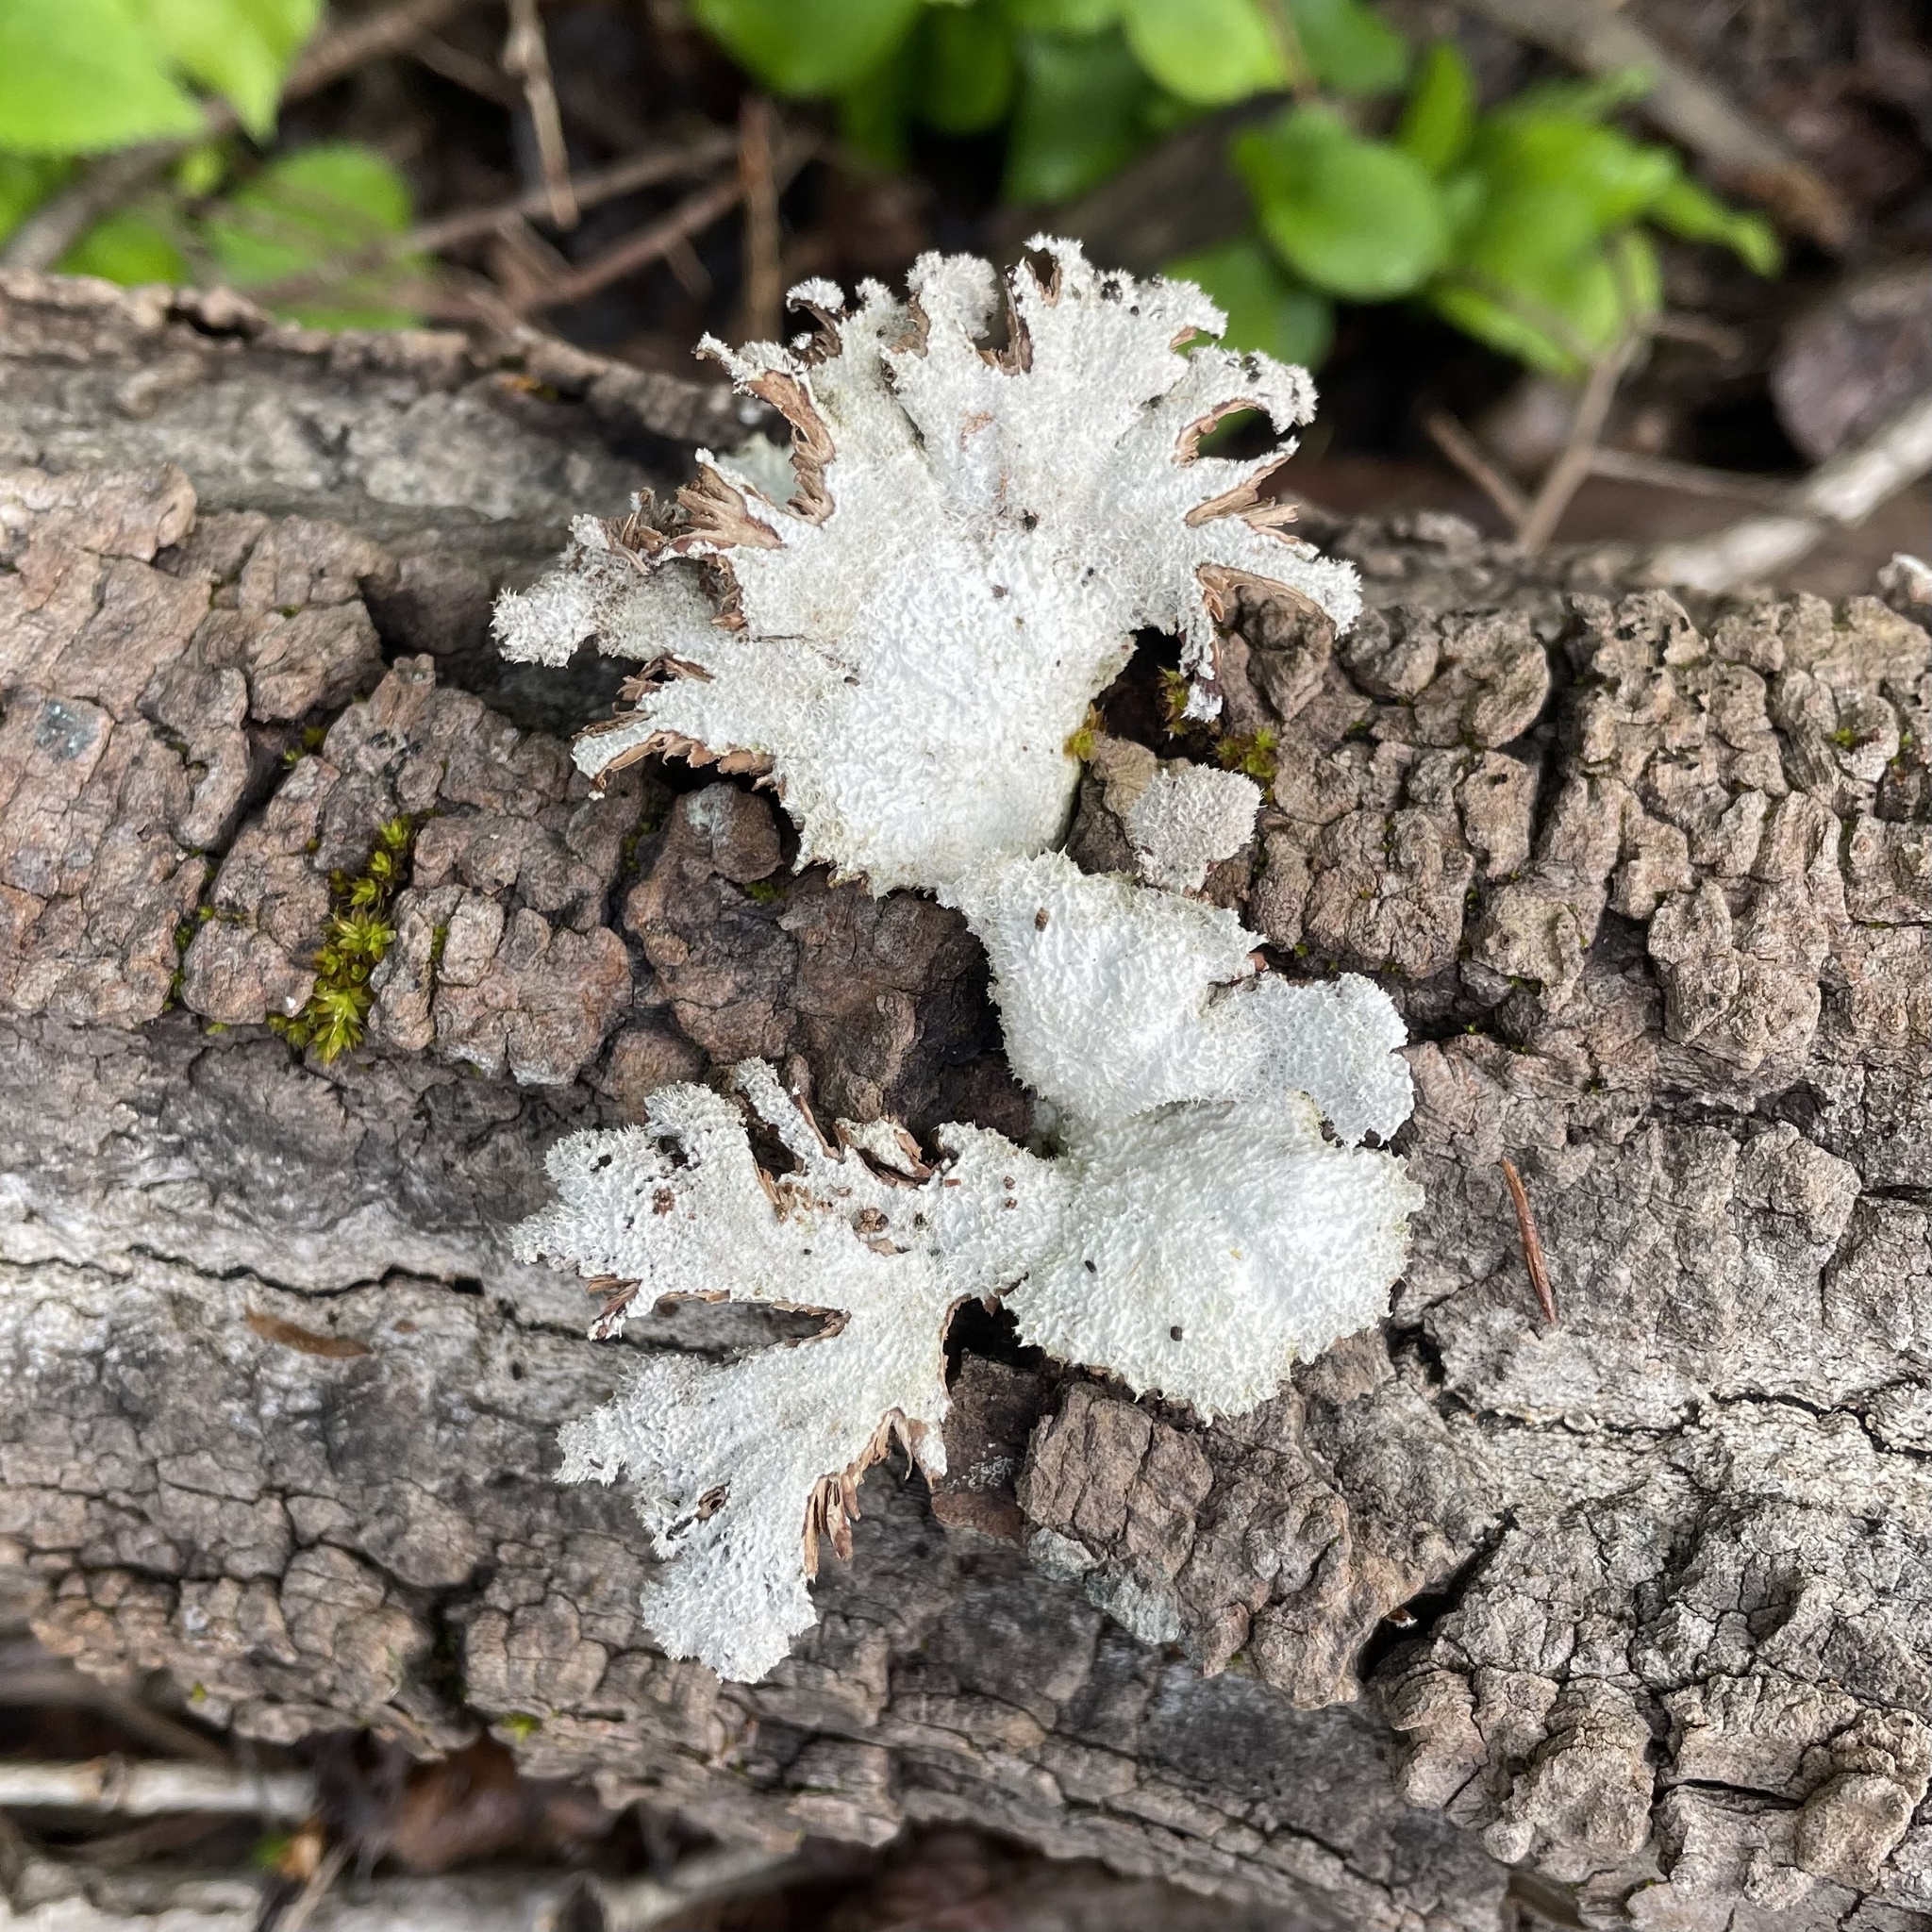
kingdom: Fungi
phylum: Basidiomycota
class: Agaricomycetes
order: Agaricales
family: Schizophyllaceae
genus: Schizophyllum
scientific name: Schizophyllum commune
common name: Common porecrust
